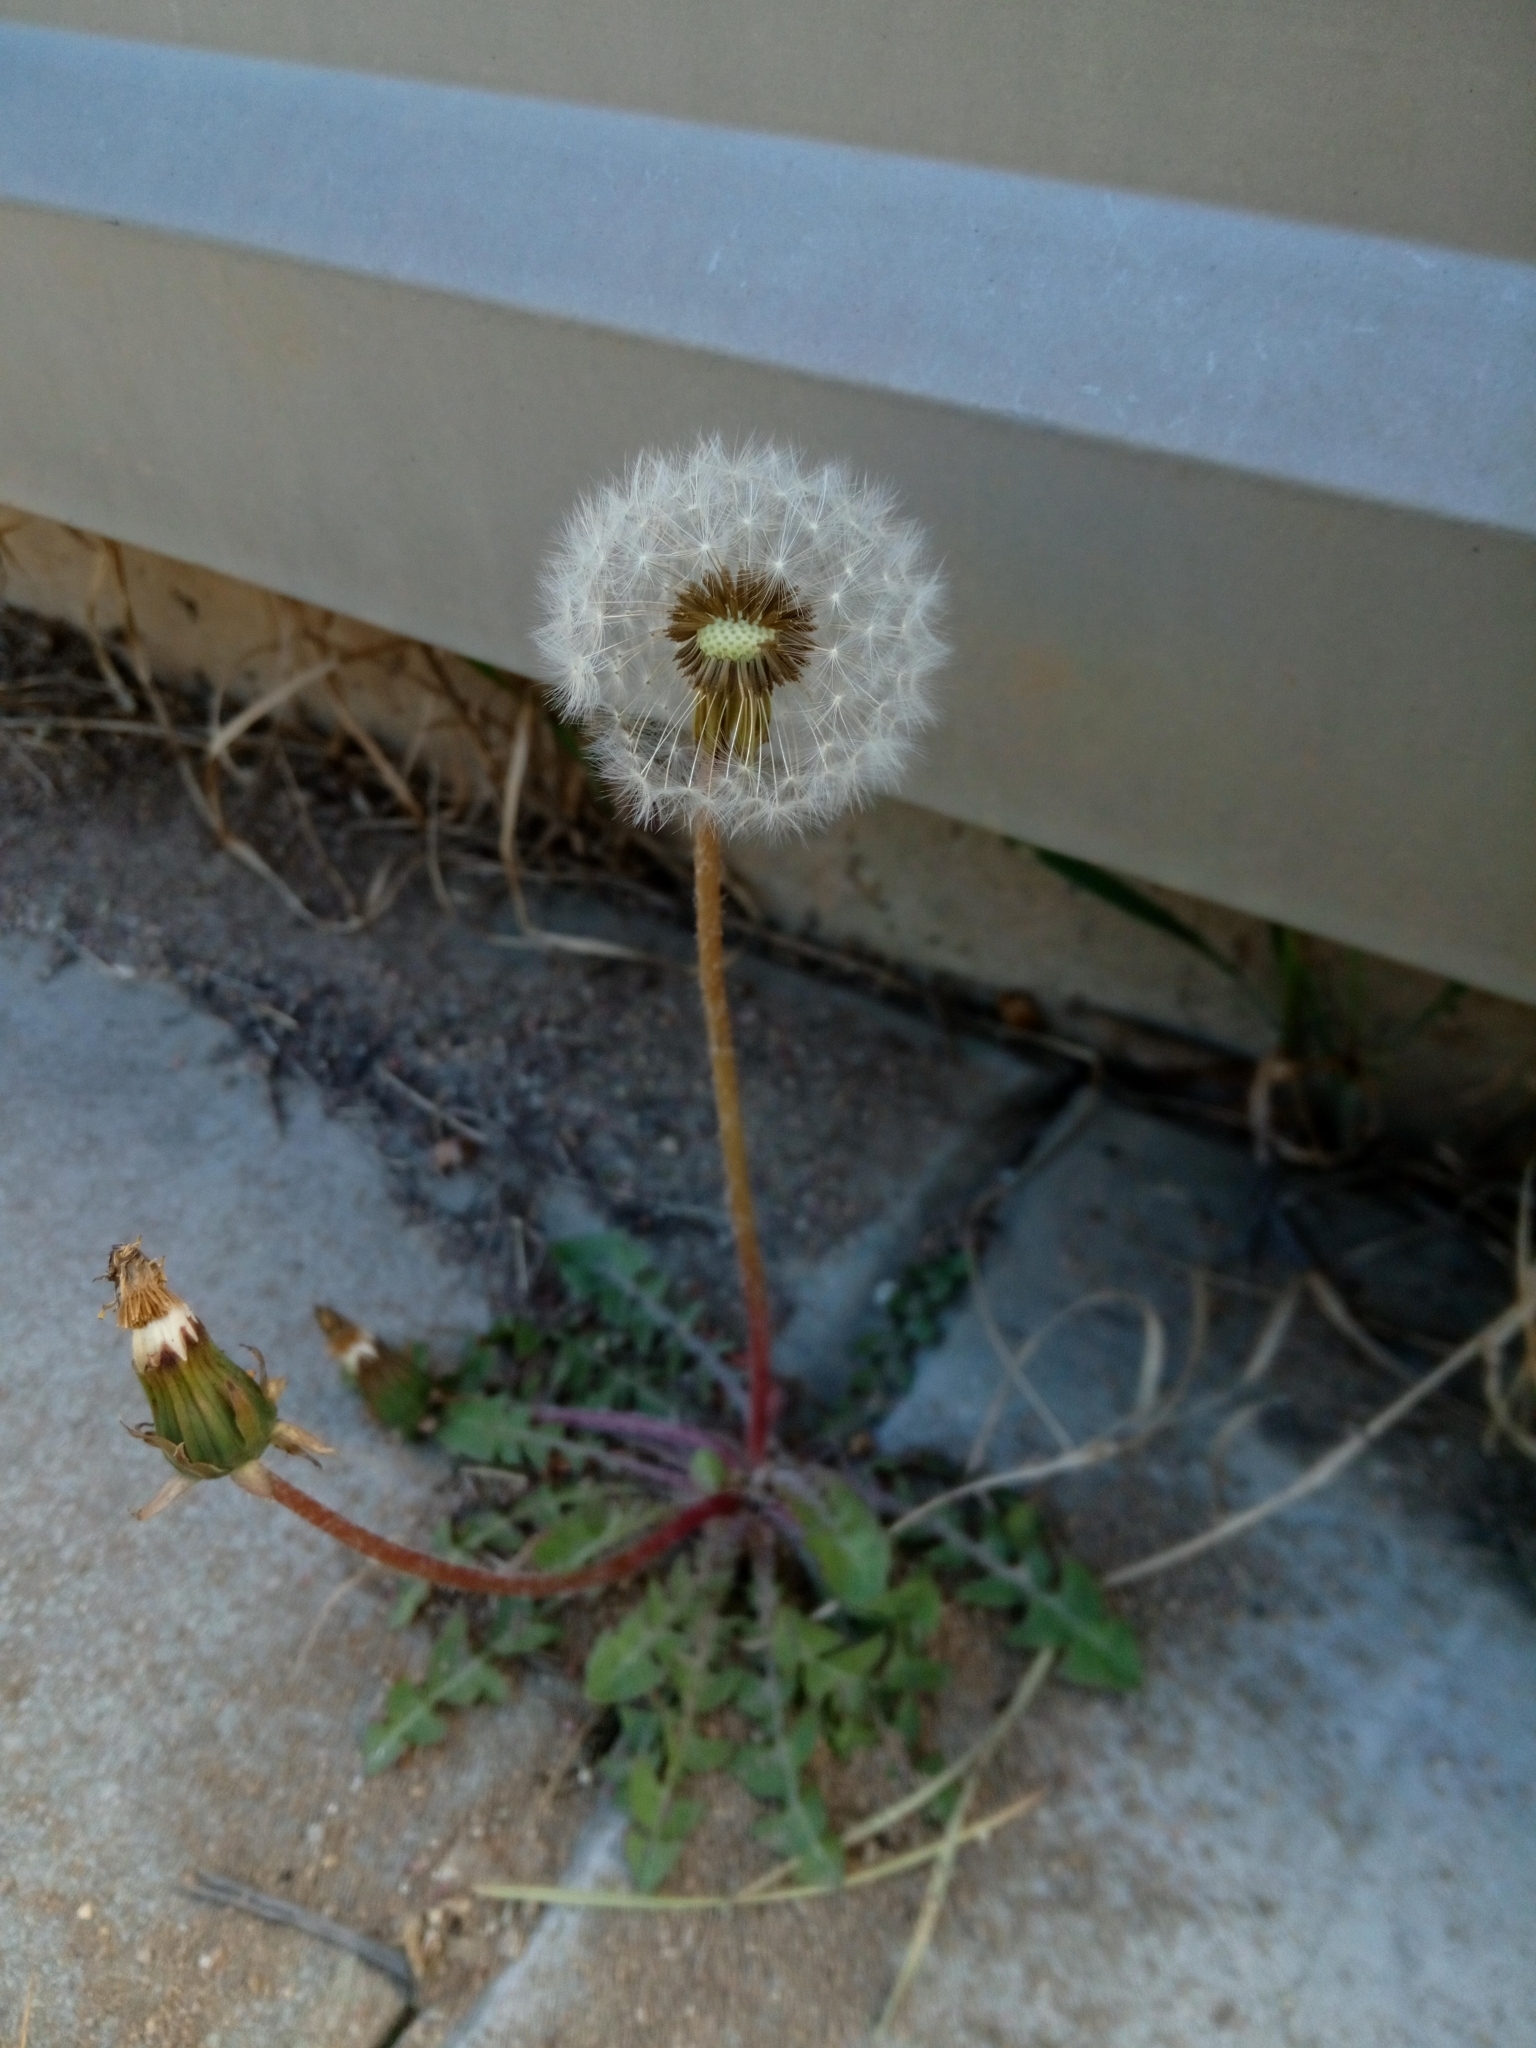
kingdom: Plantae
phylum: Tracheophyta
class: Magnoliopsida
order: Asterales
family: Asteraceae
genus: Taraxacum
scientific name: Taraxacum
